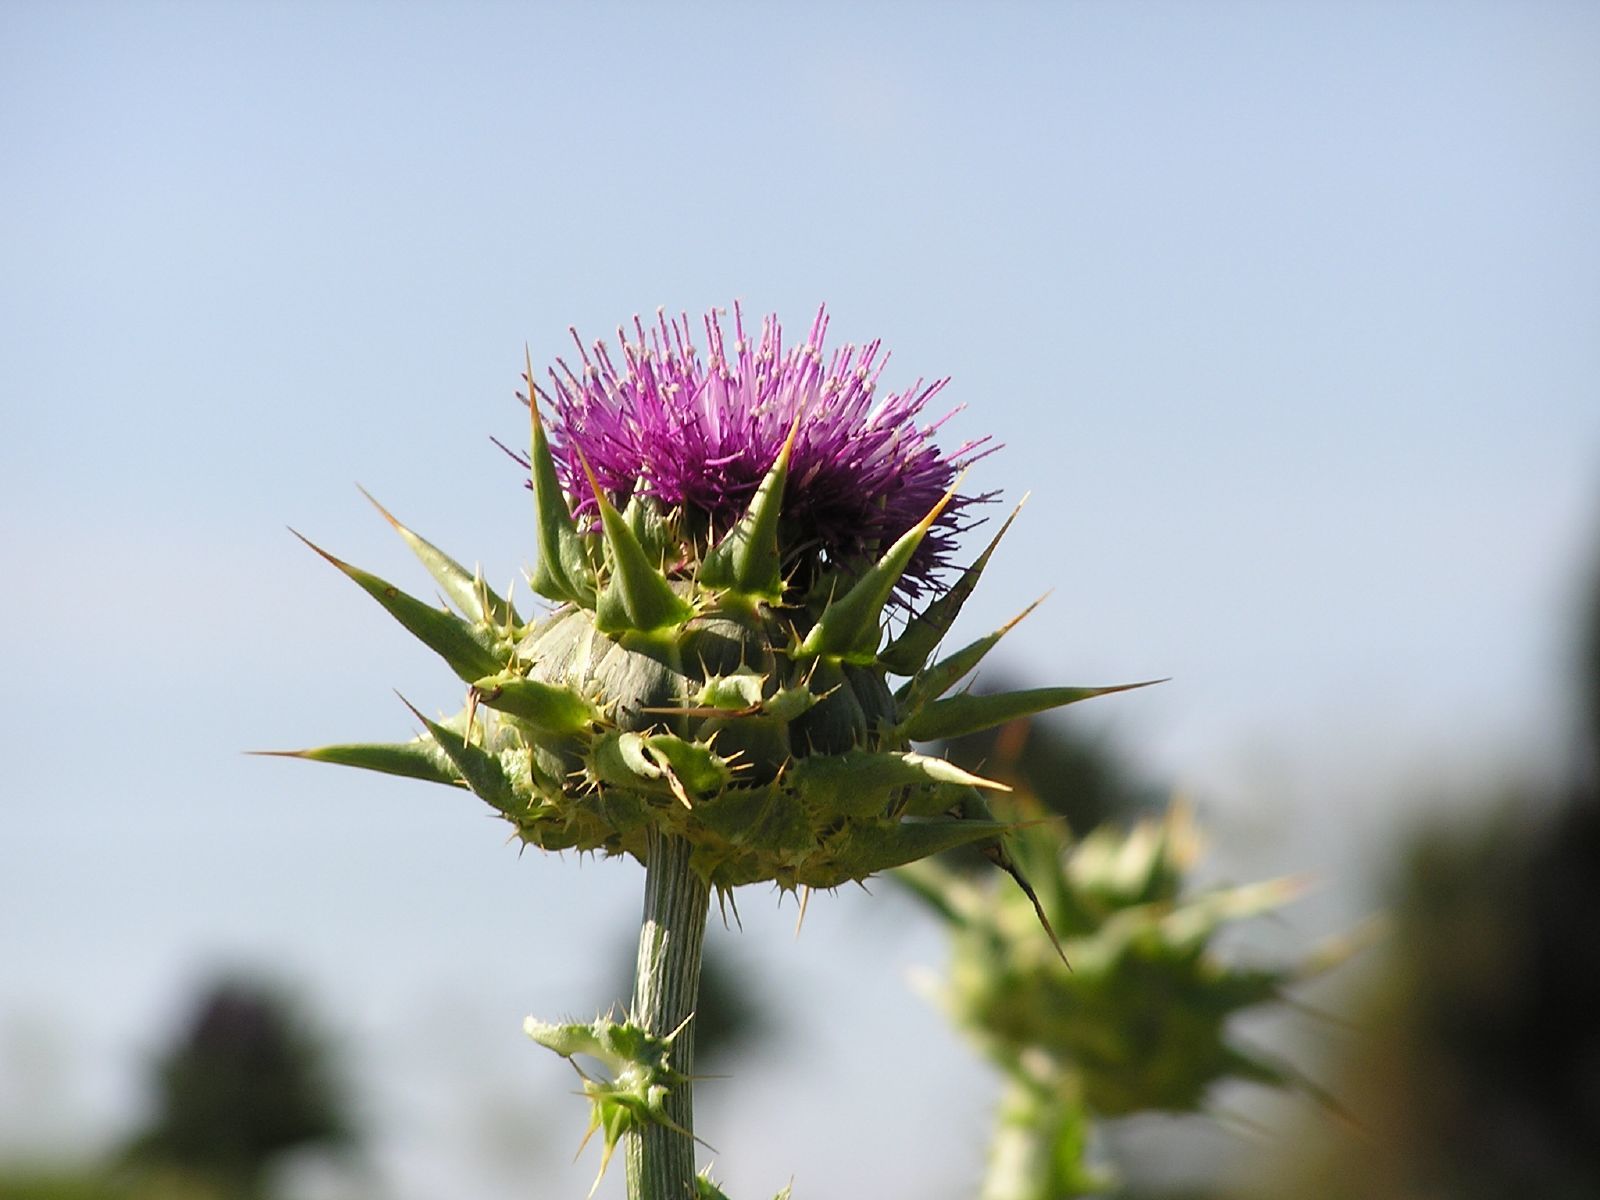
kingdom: Plantae
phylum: Tracheophyta
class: Magnoliopsida
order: Asterales
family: Asteraceae
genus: Silybum
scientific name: Silybum marianum
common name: Milk thistle
